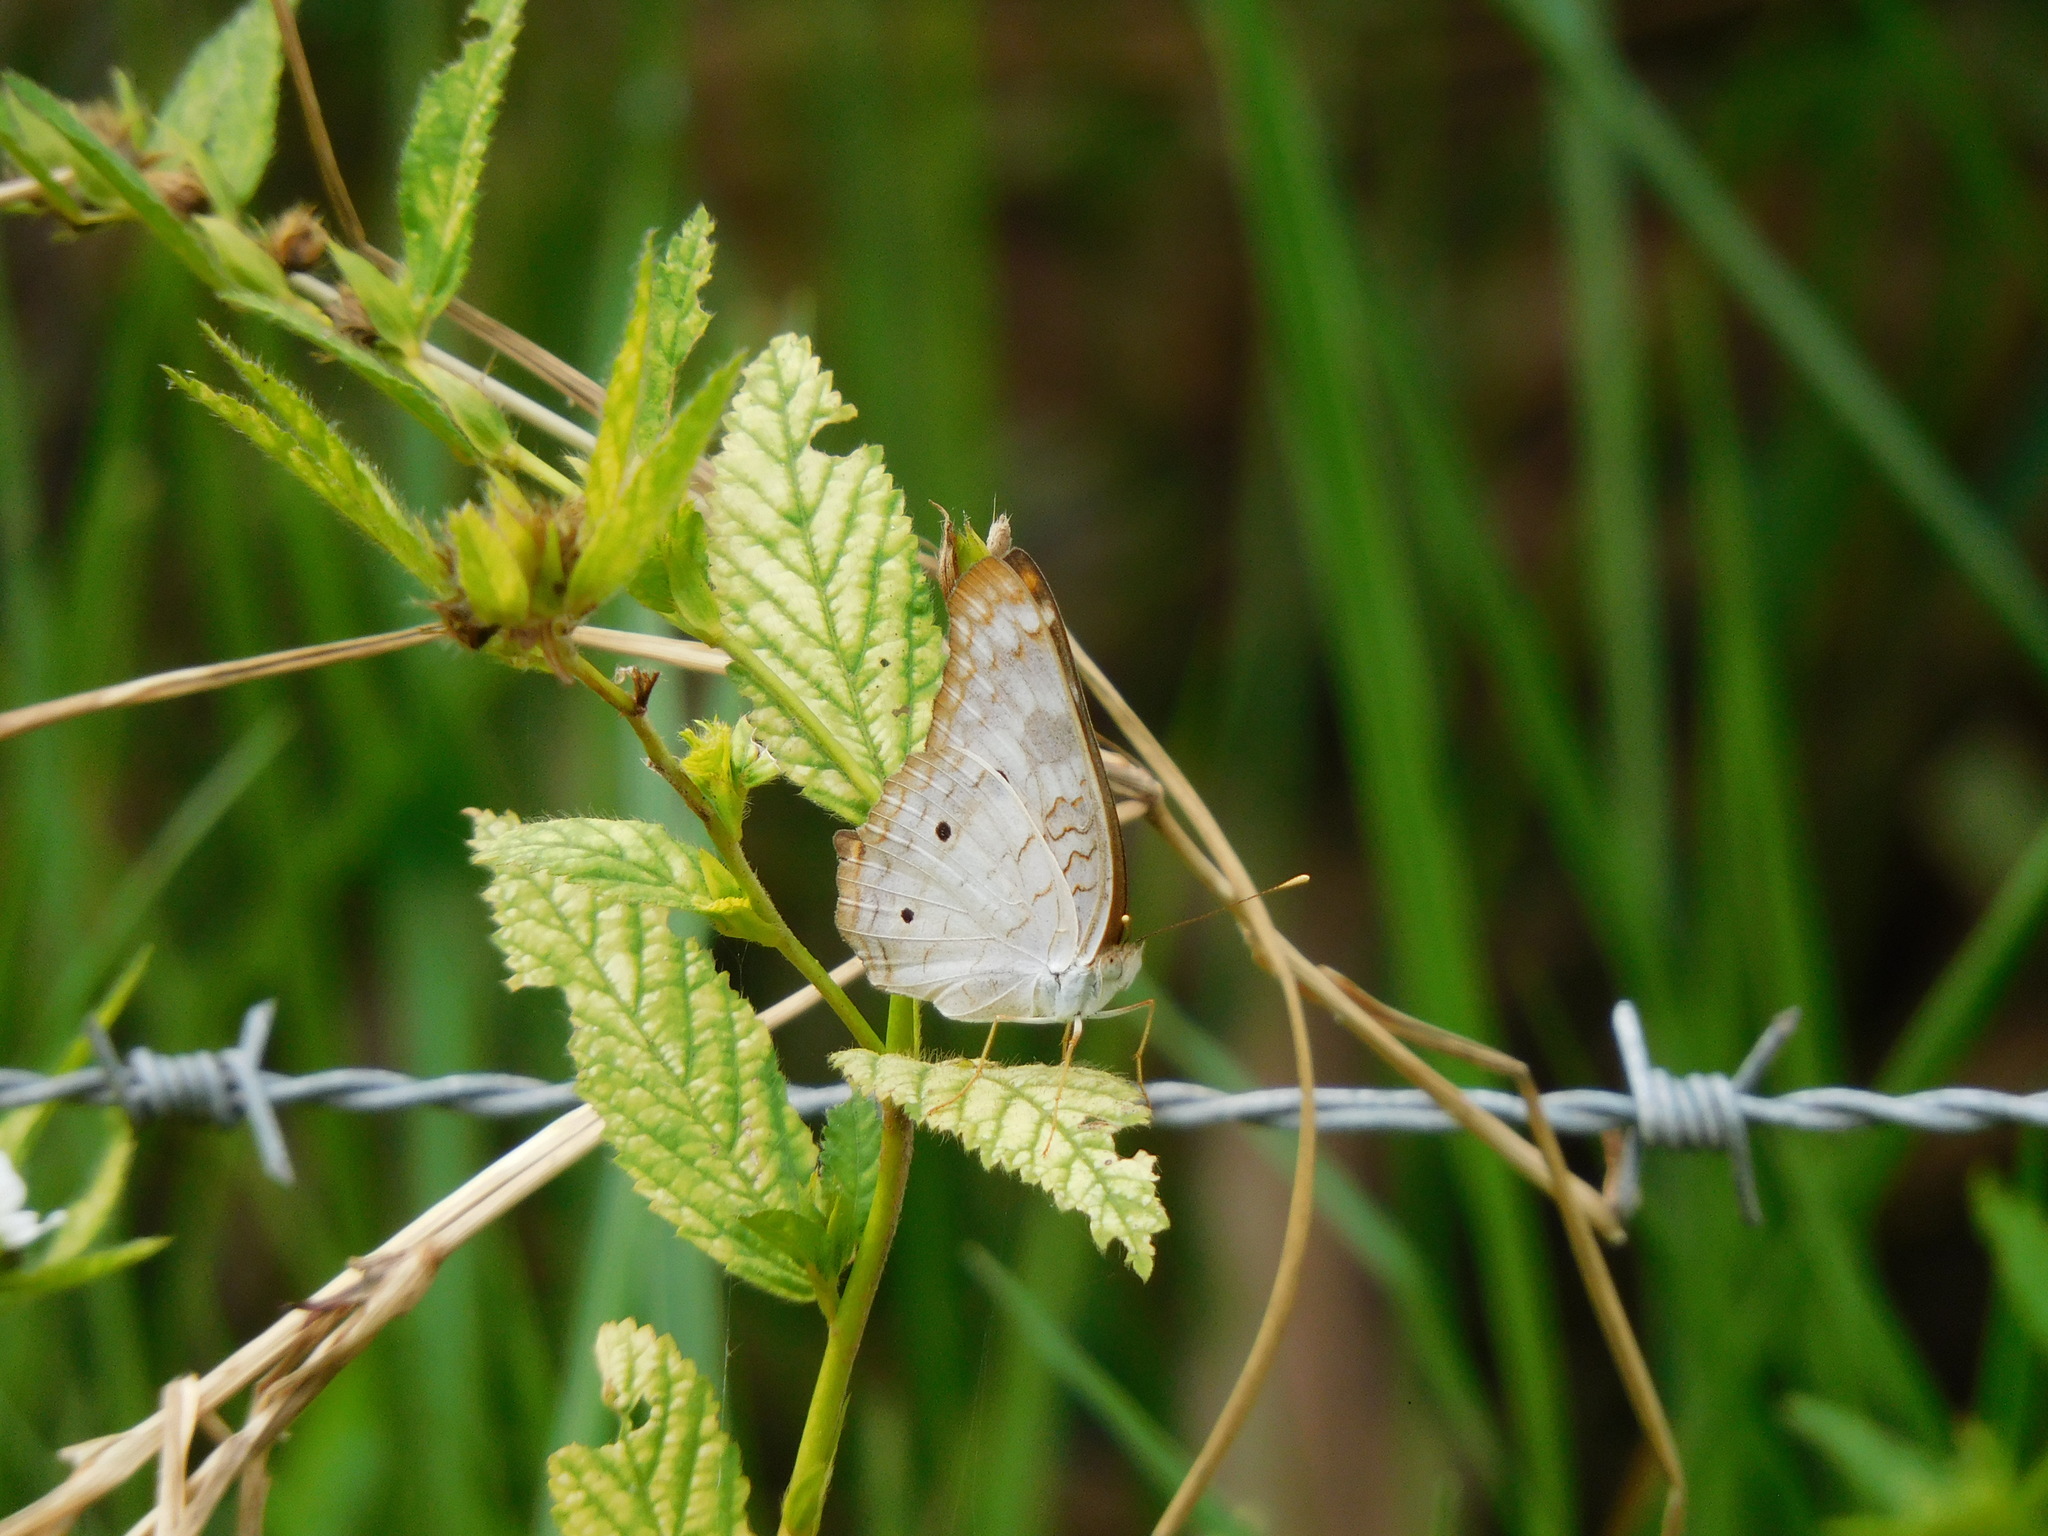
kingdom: Animalia
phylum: Arthropoda
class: Insecta
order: Lepidoptera
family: Nymphalidae
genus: Anartia
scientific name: Anartia jatrophae
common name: White peacock
